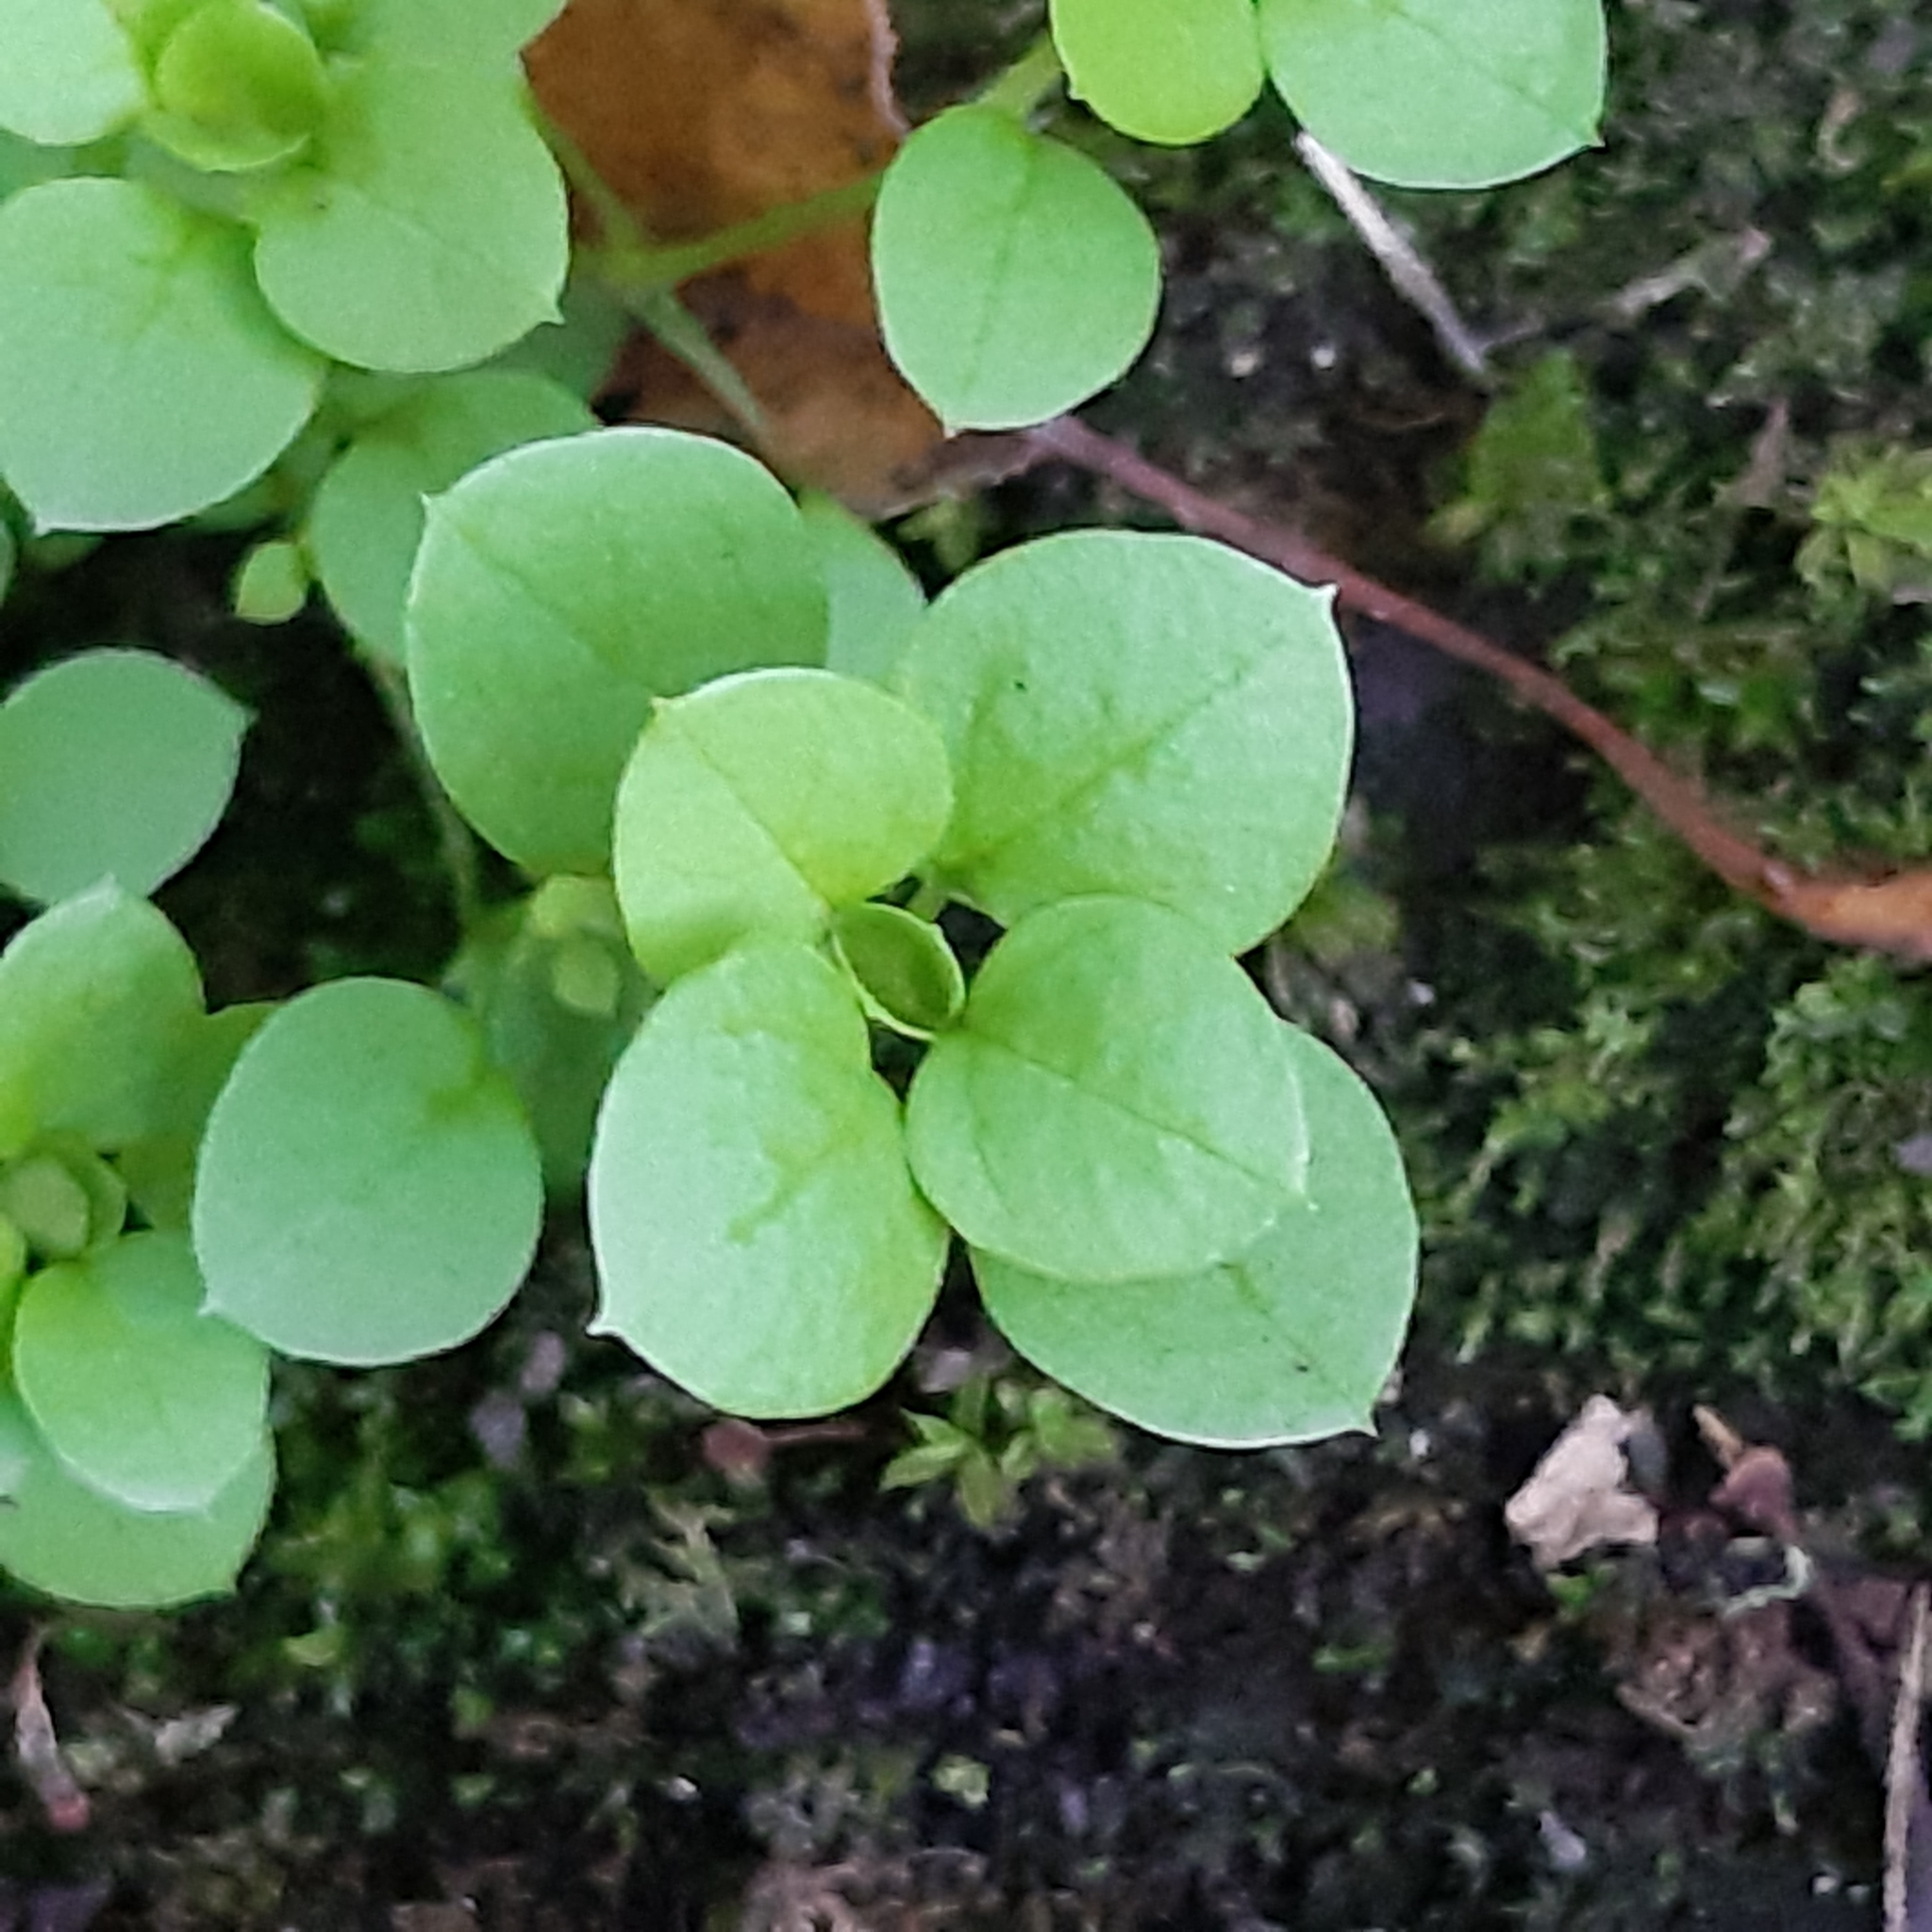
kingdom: Plantae
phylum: Tracheophyta
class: Magnoliopsida
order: Caryophyllales
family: Caryophyllaceae
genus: Stellaria
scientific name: Stellaria media
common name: Common chickweed
